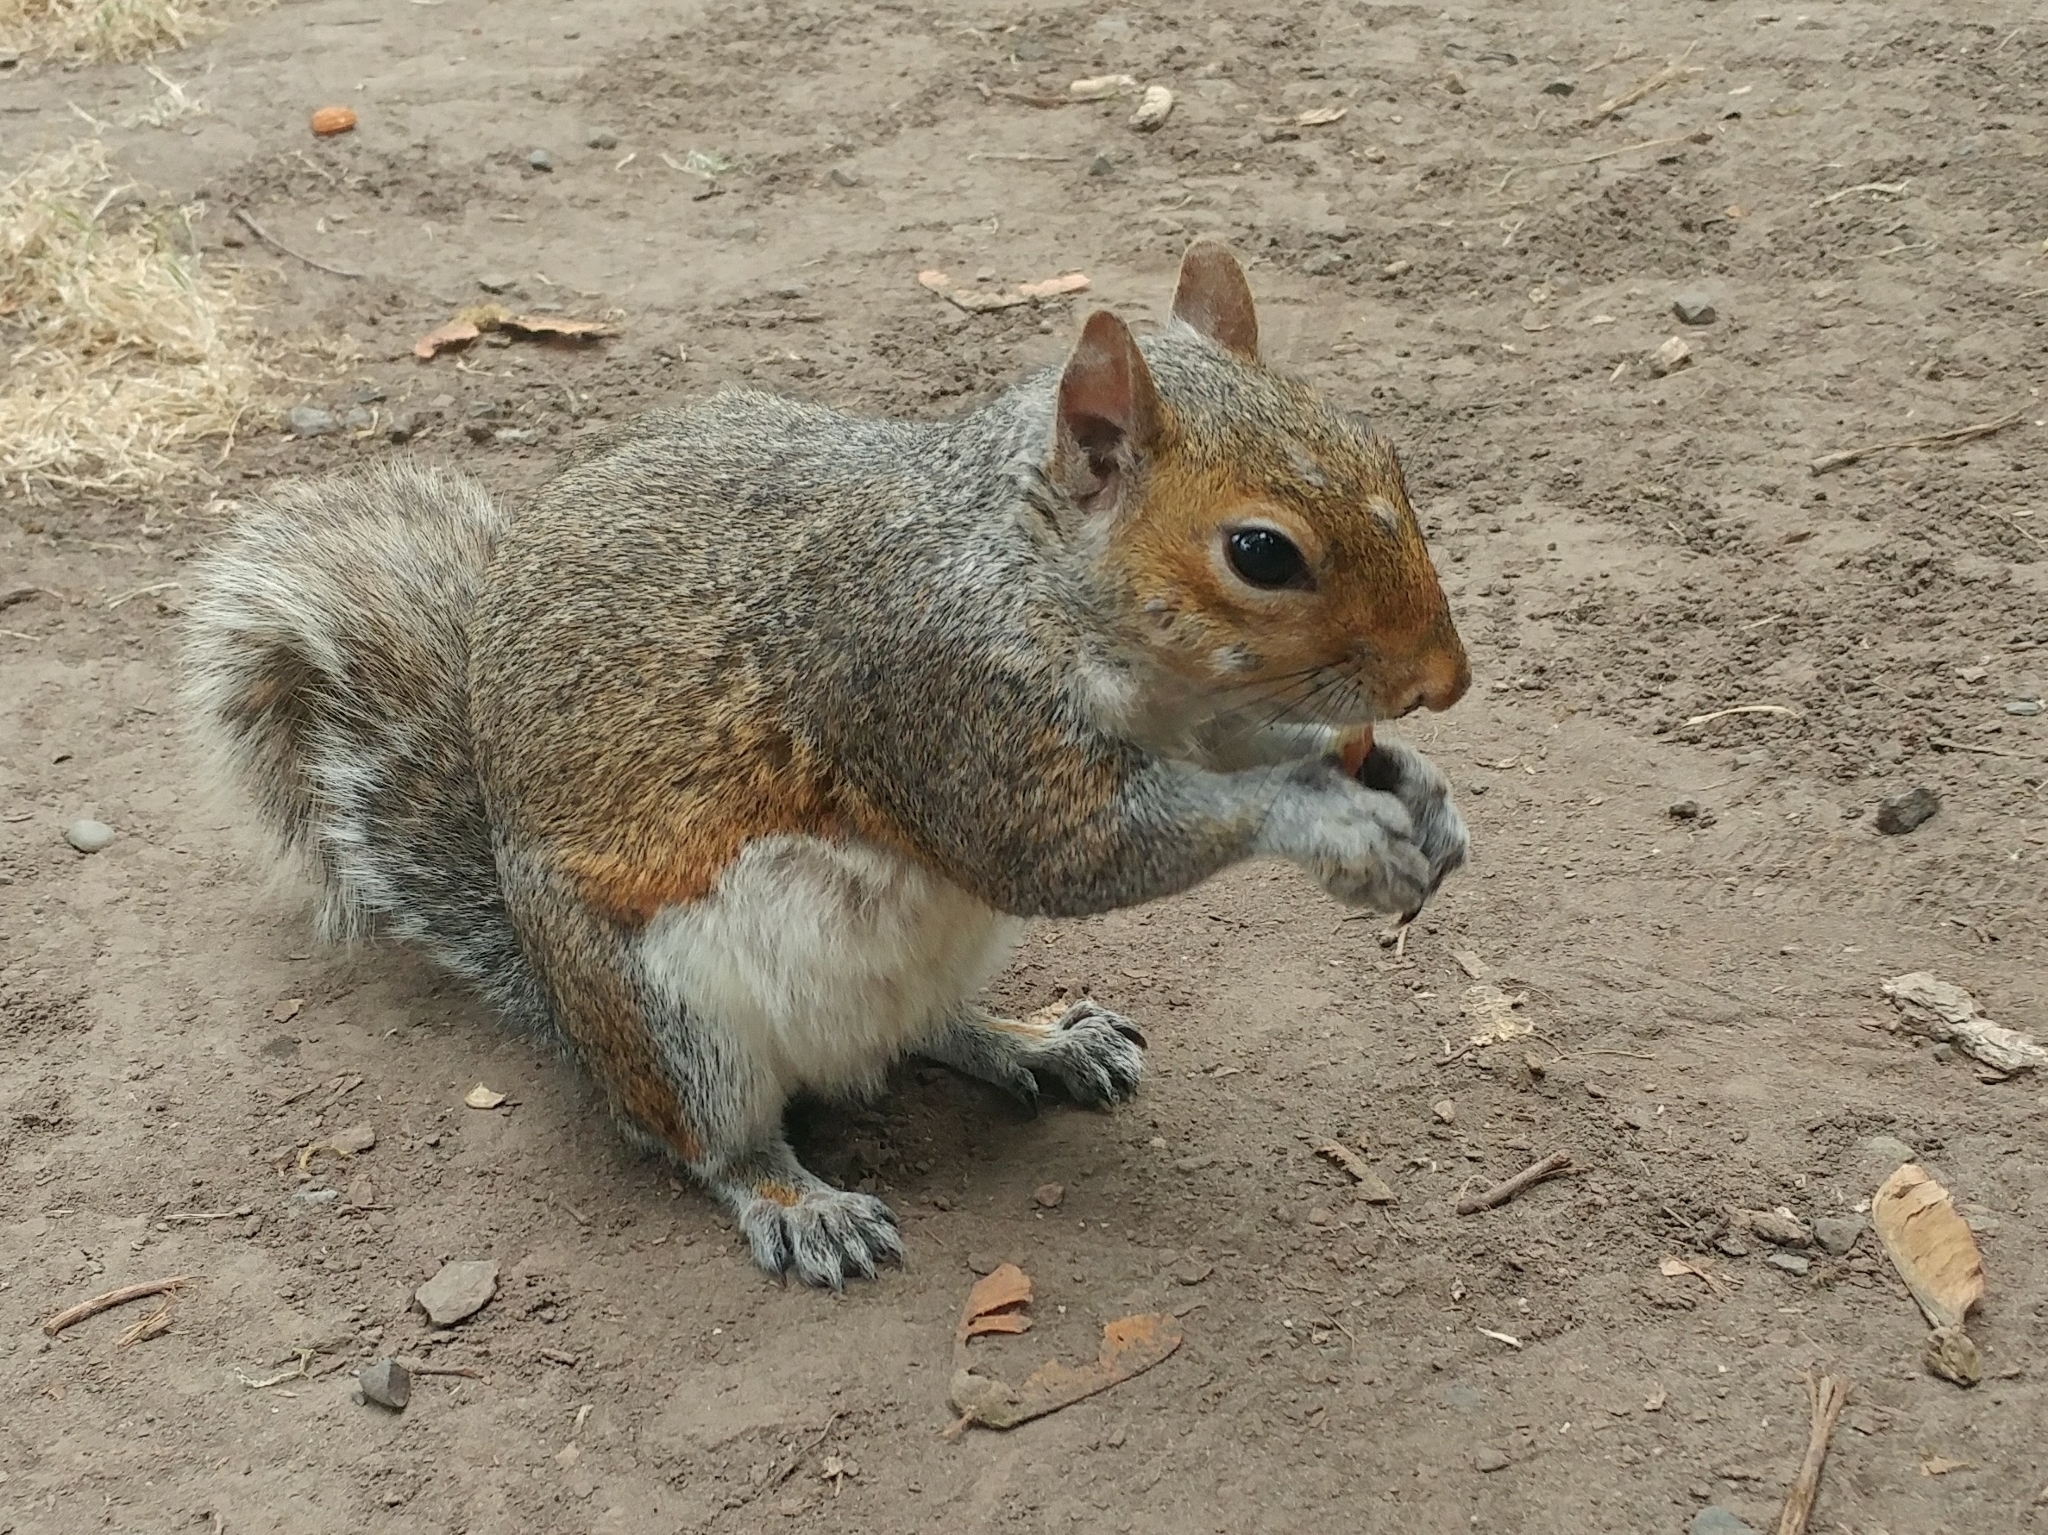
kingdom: Animalia
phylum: Chordata
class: Mammalia
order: Rodentia
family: Sciuridae
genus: Sciurus
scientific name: Sciurus carolinensis
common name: Eastern gray squirrel
